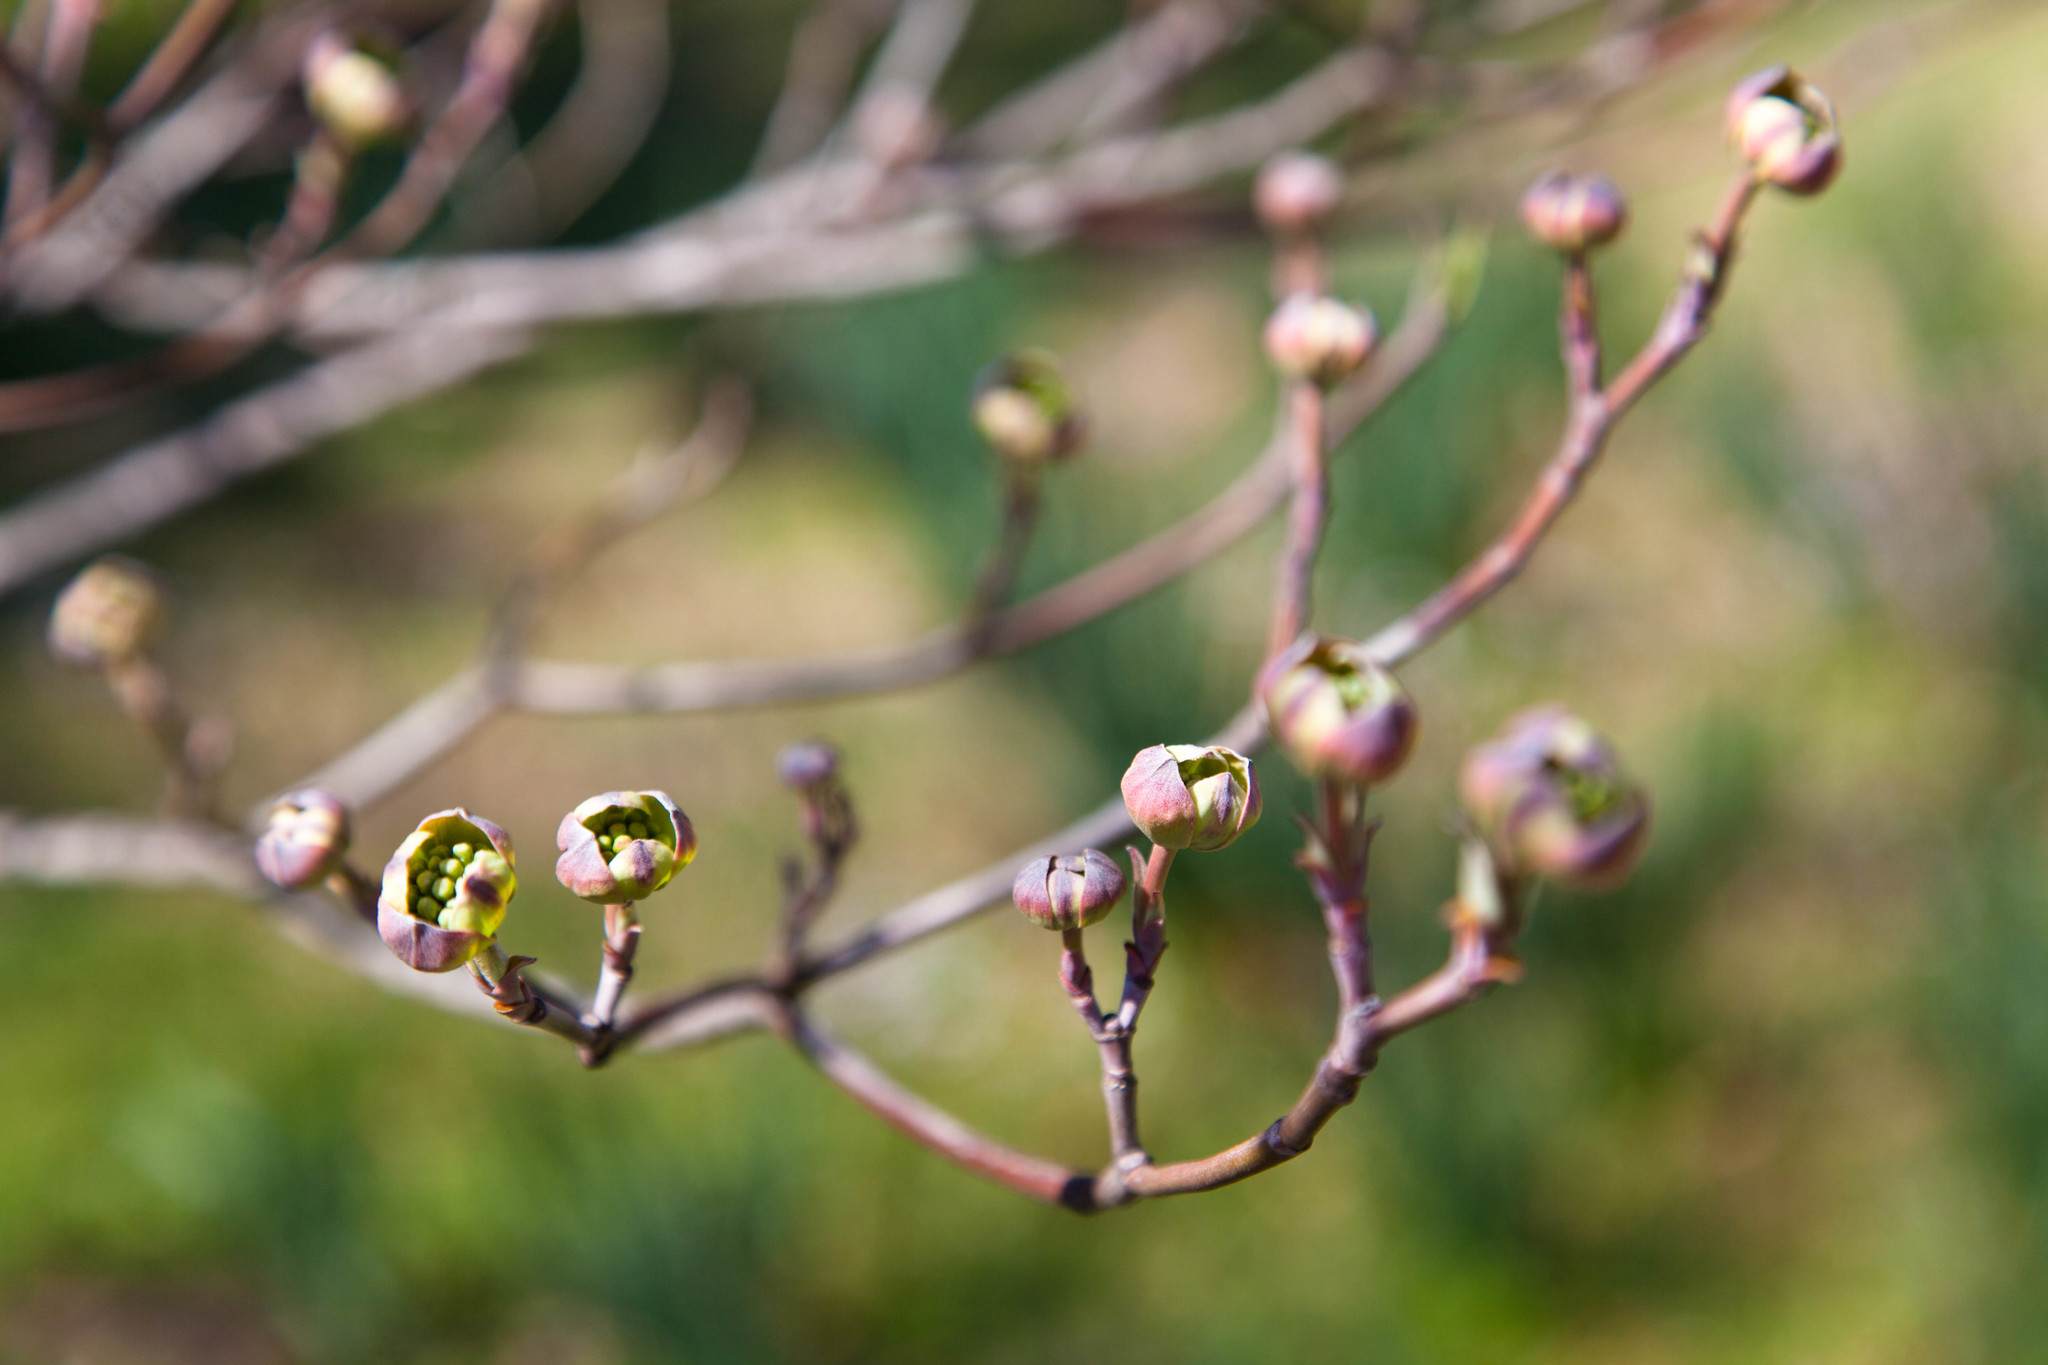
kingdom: Plantae
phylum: Tracheophyta
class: Magnoliopsida
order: Cornales
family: Cornaceae
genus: Cornus
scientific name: Cornus florida
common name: Flowering dogwood
